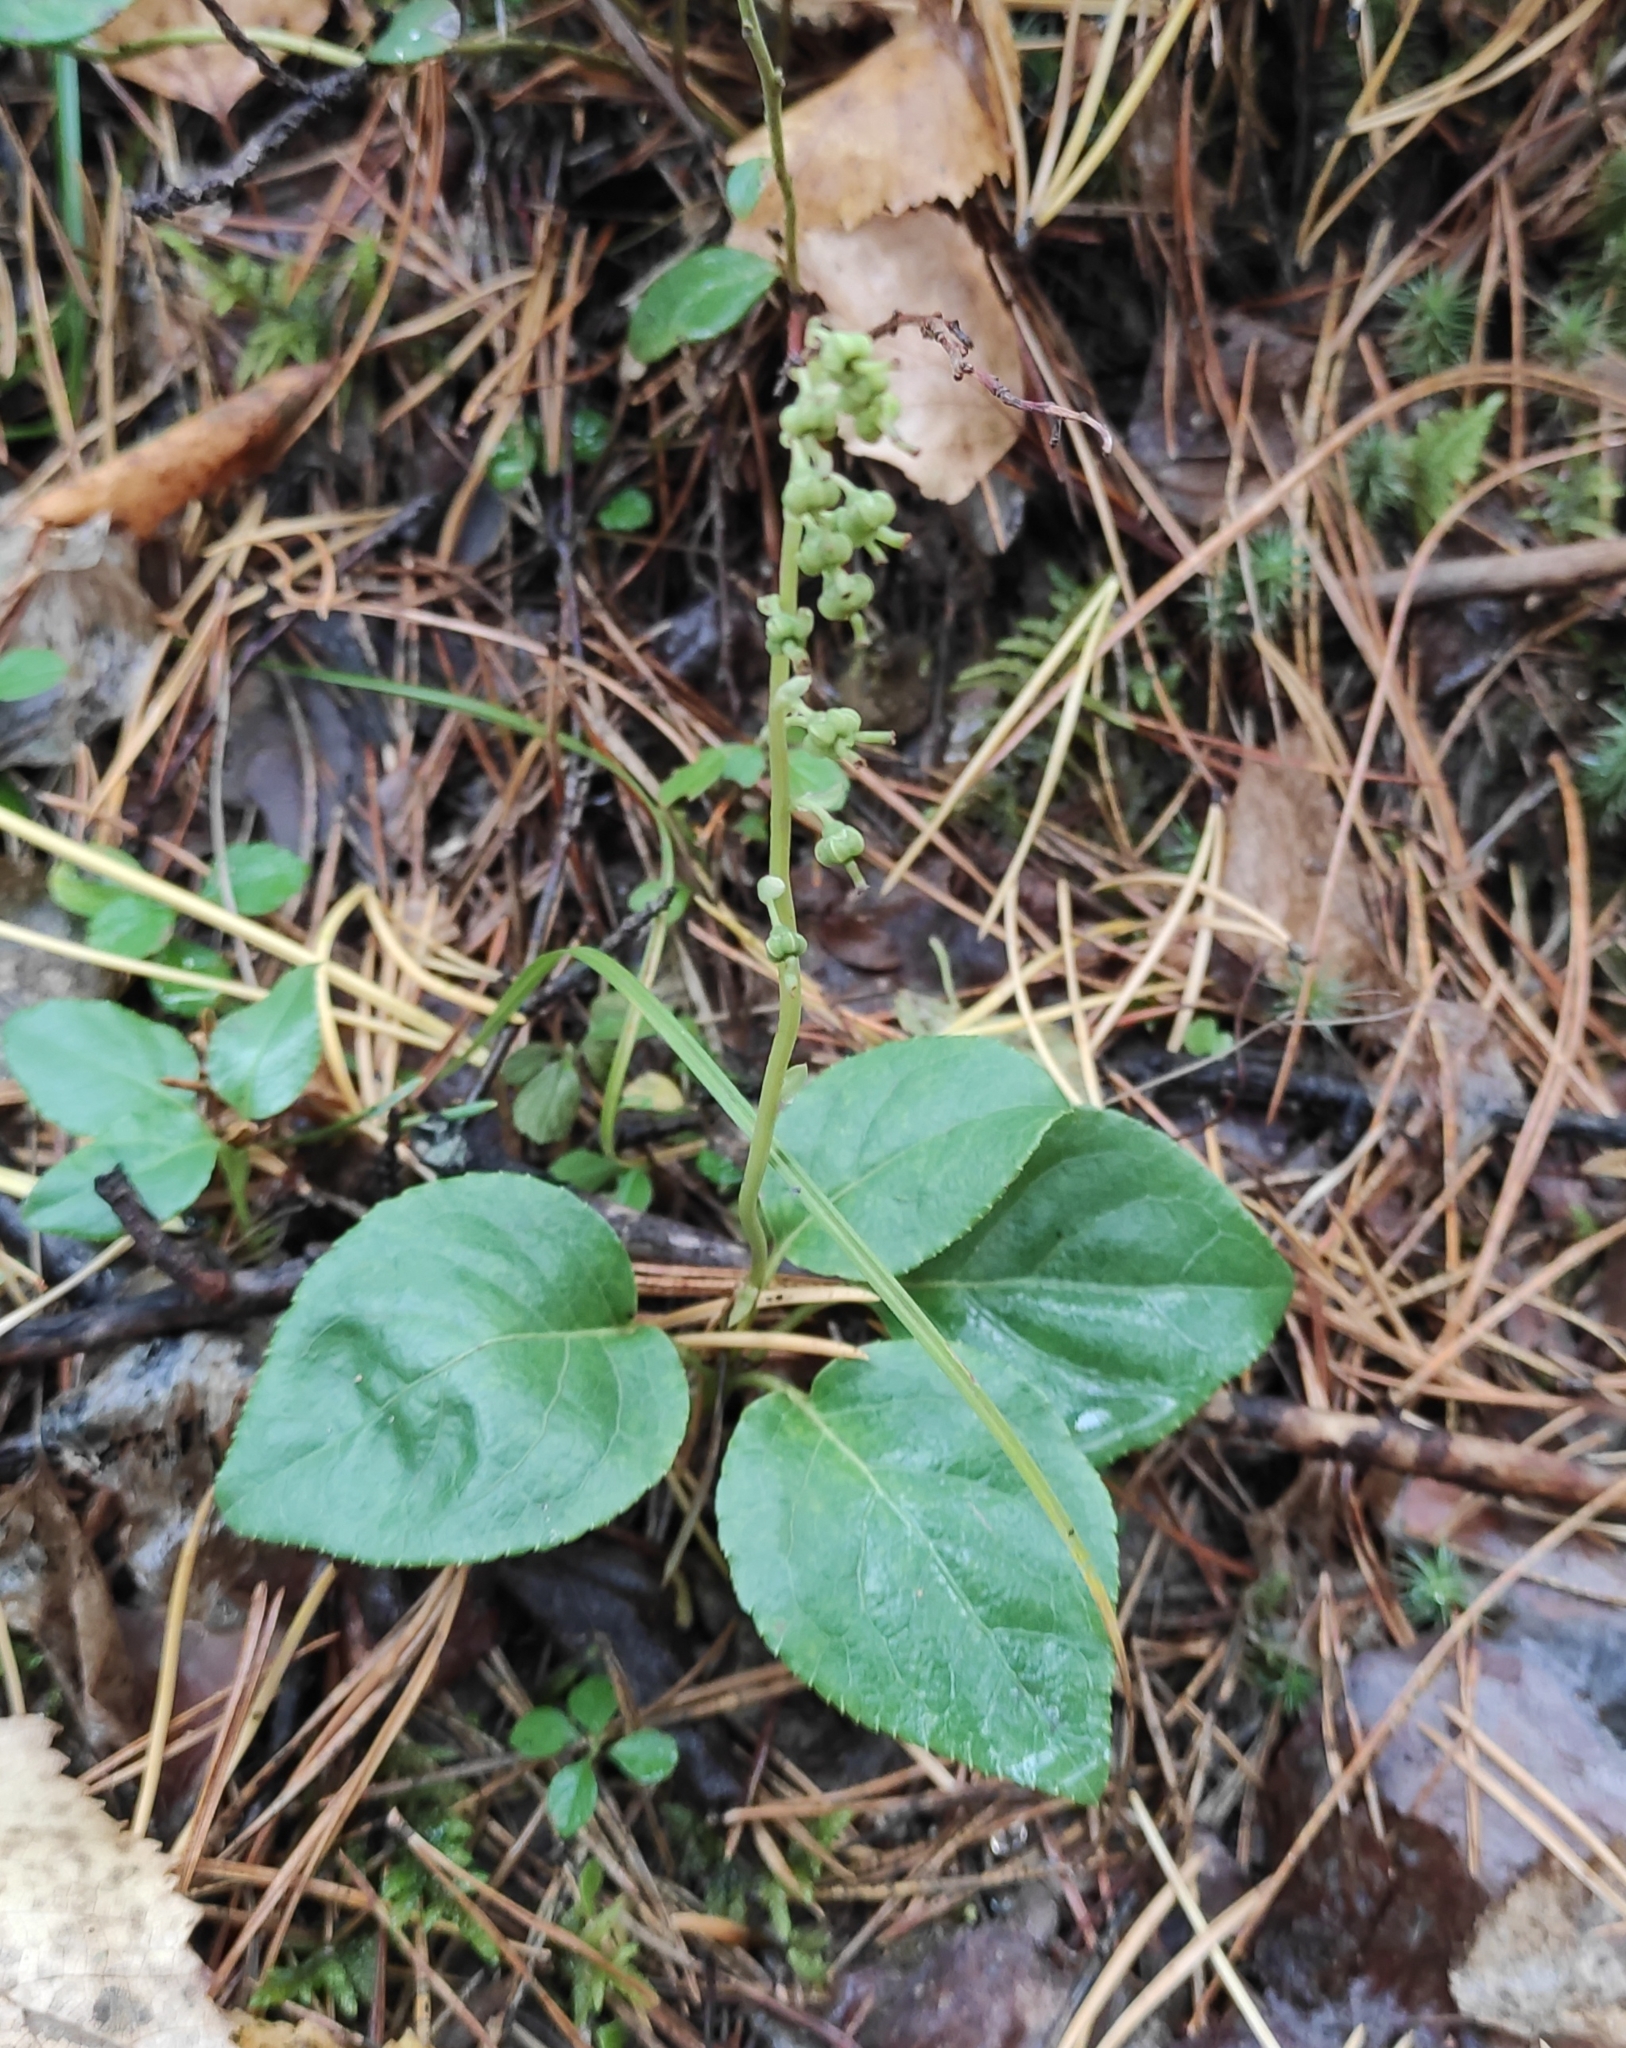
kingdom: Plantae
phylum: Tracheophyta
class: Magnoliopsida
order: Ericales
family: Ericaceae
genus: Orthilia
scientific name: Orthilia secunda
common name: One-sided orthilia
